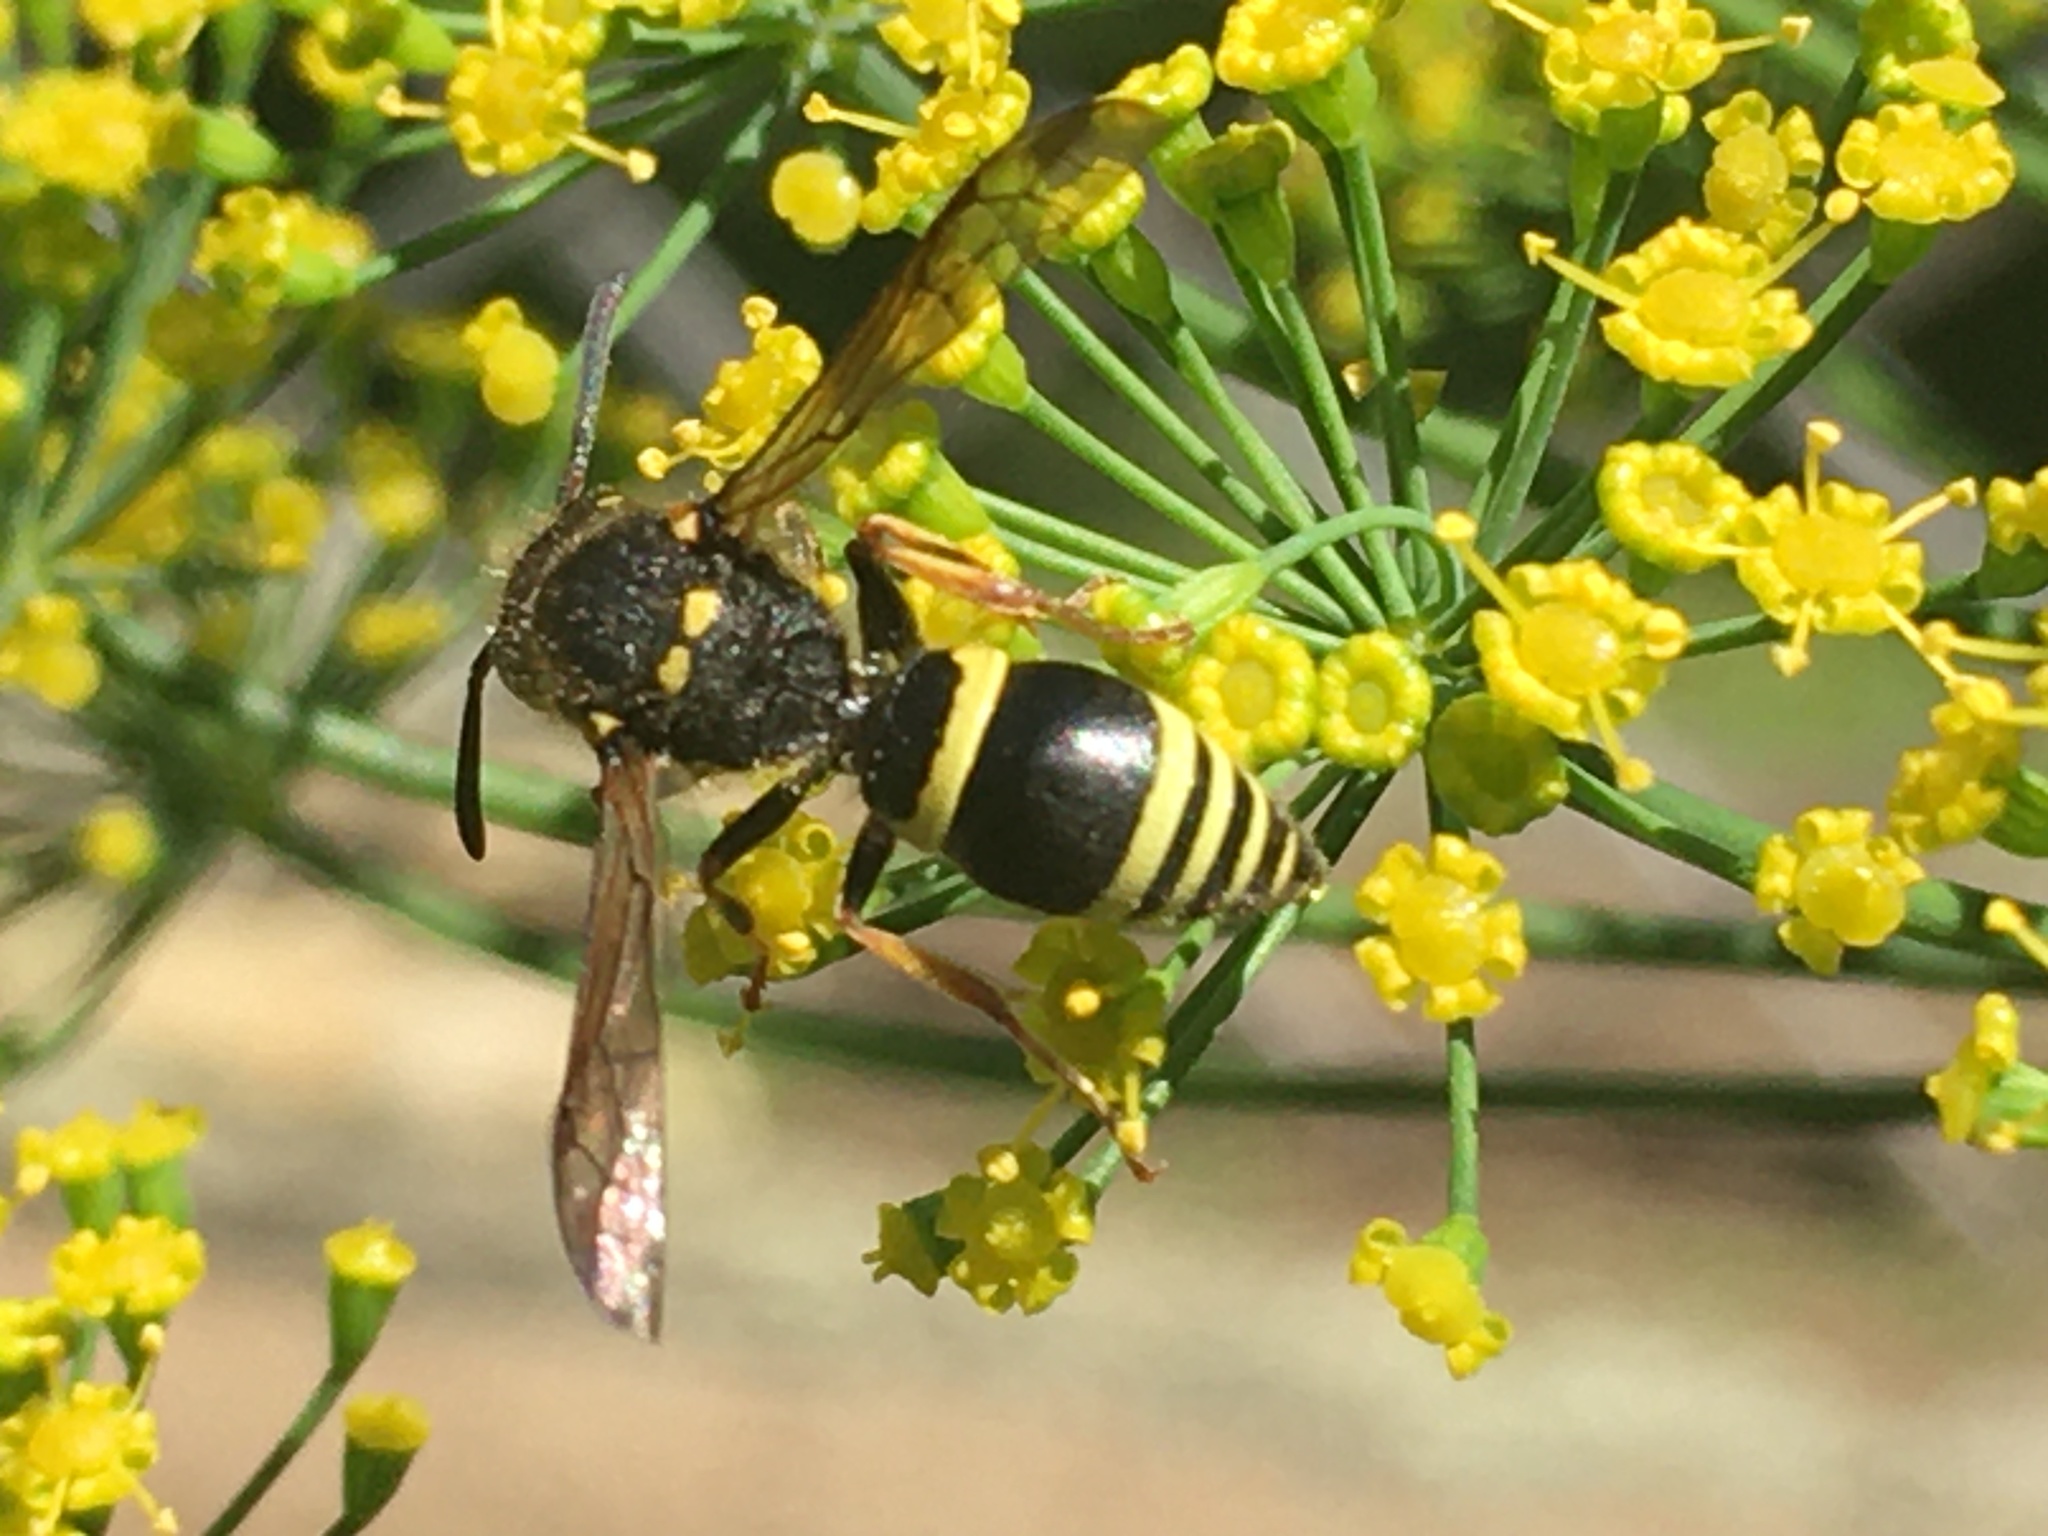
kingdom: Animalia
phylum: Arthropoda
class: Insecta
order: Hymenoptera
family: Vespidae
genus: Ancistrocerus
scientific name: Ancistrocerus
